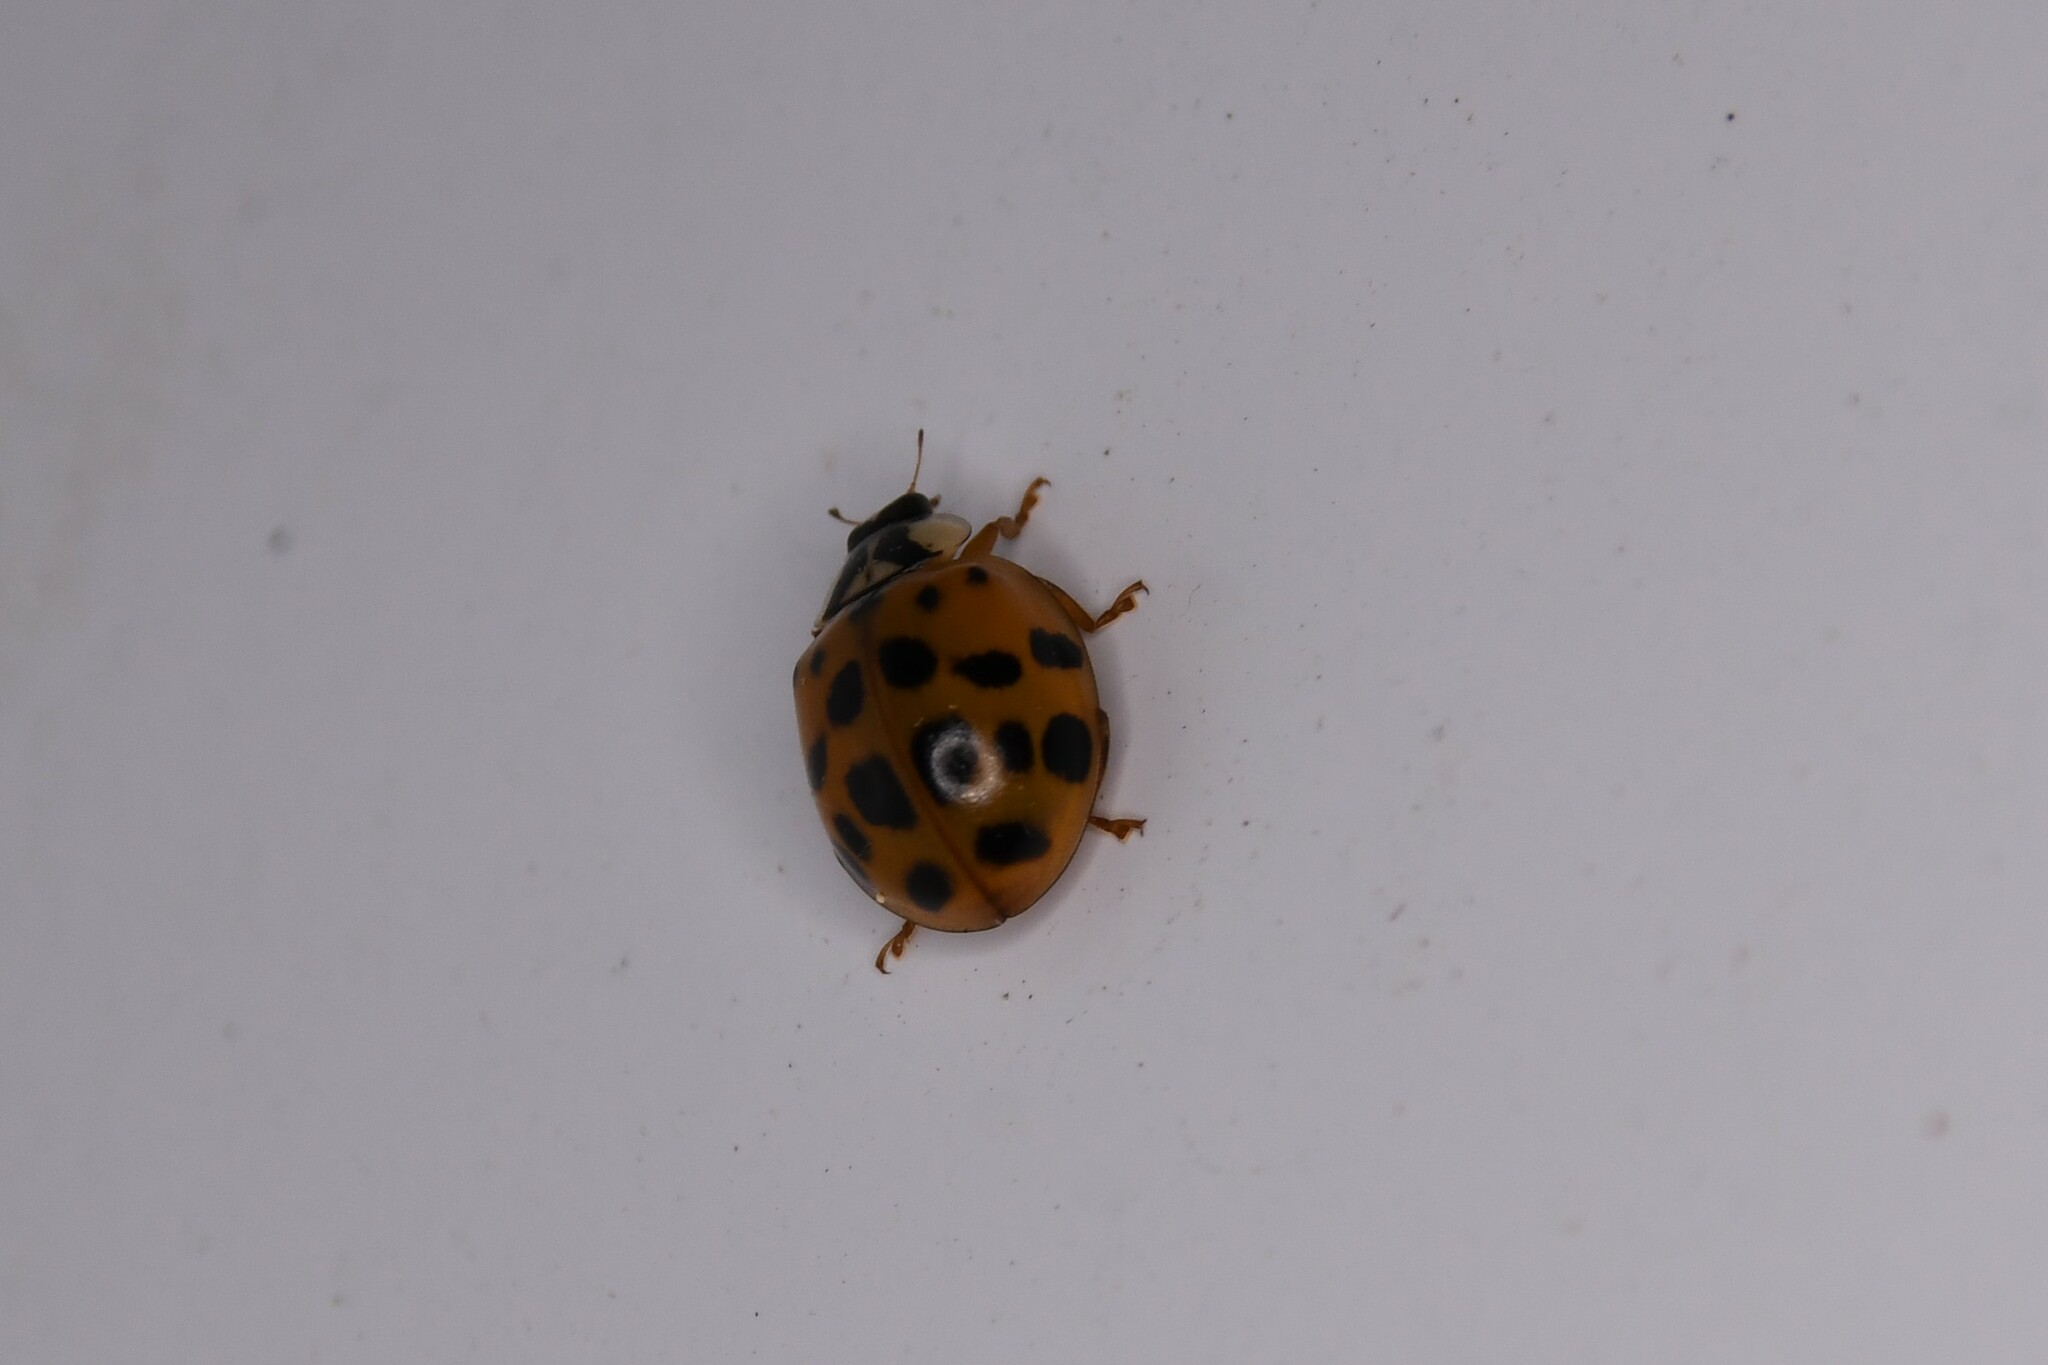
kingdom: Animalia
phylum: Arthropoda
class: Insecta
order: Coleoptera
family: Coccinellidae
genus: Harmonia
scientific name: Harmonia axyridis
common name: Harlequin ladybird
